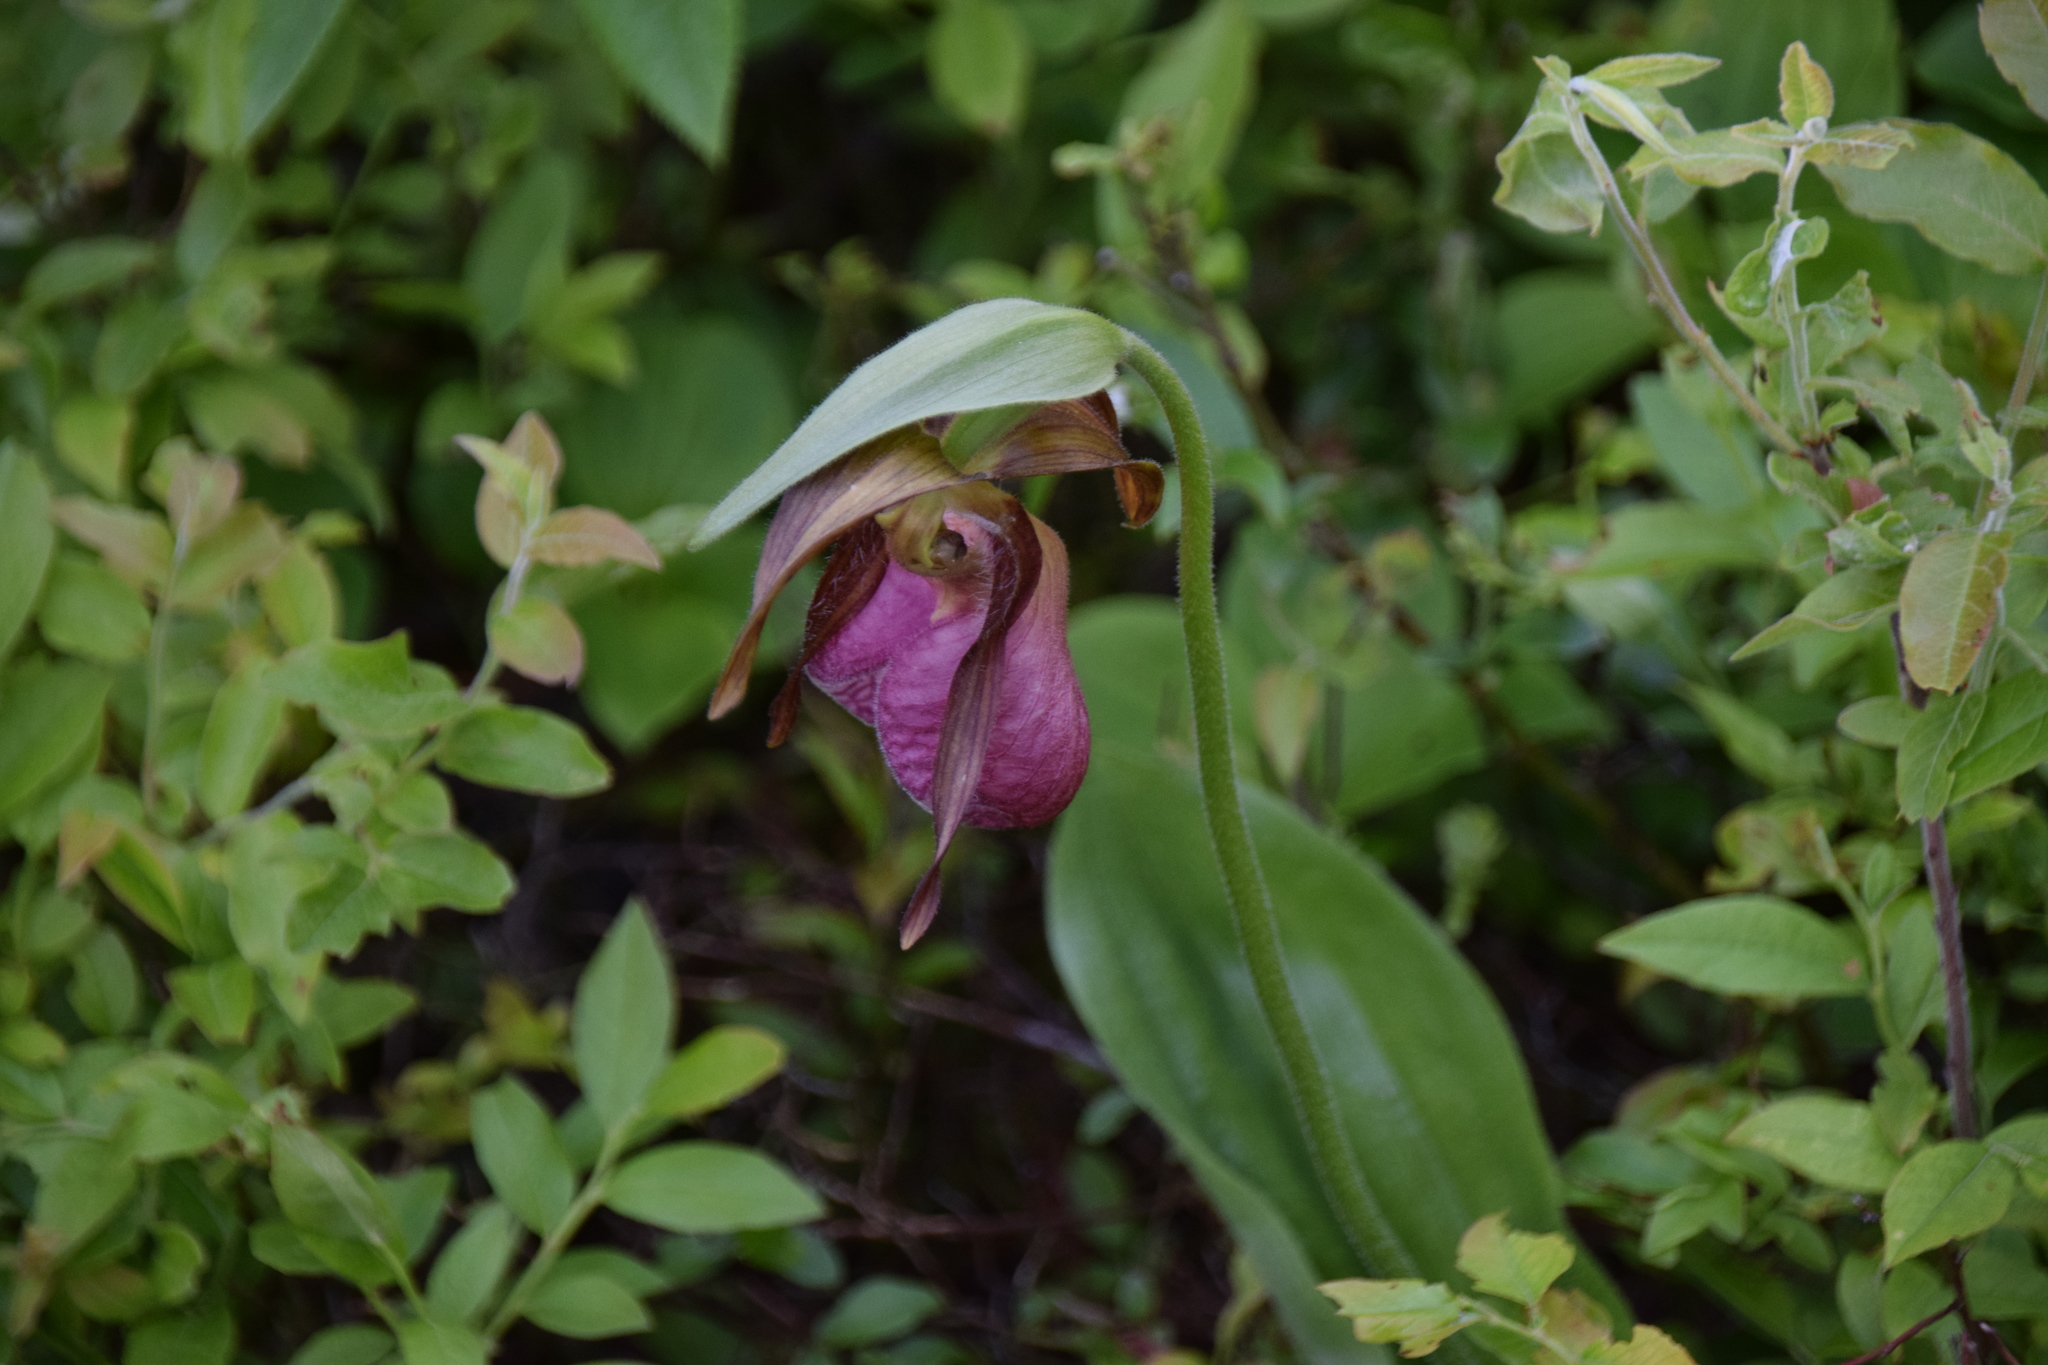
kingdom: Plantae
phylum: Tracheophyta
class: Liliopsida
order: Asparagales
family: Orchidaceae
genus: Cypripedium
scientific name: Cypripedium acaule
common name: Pink lady's-slipper
